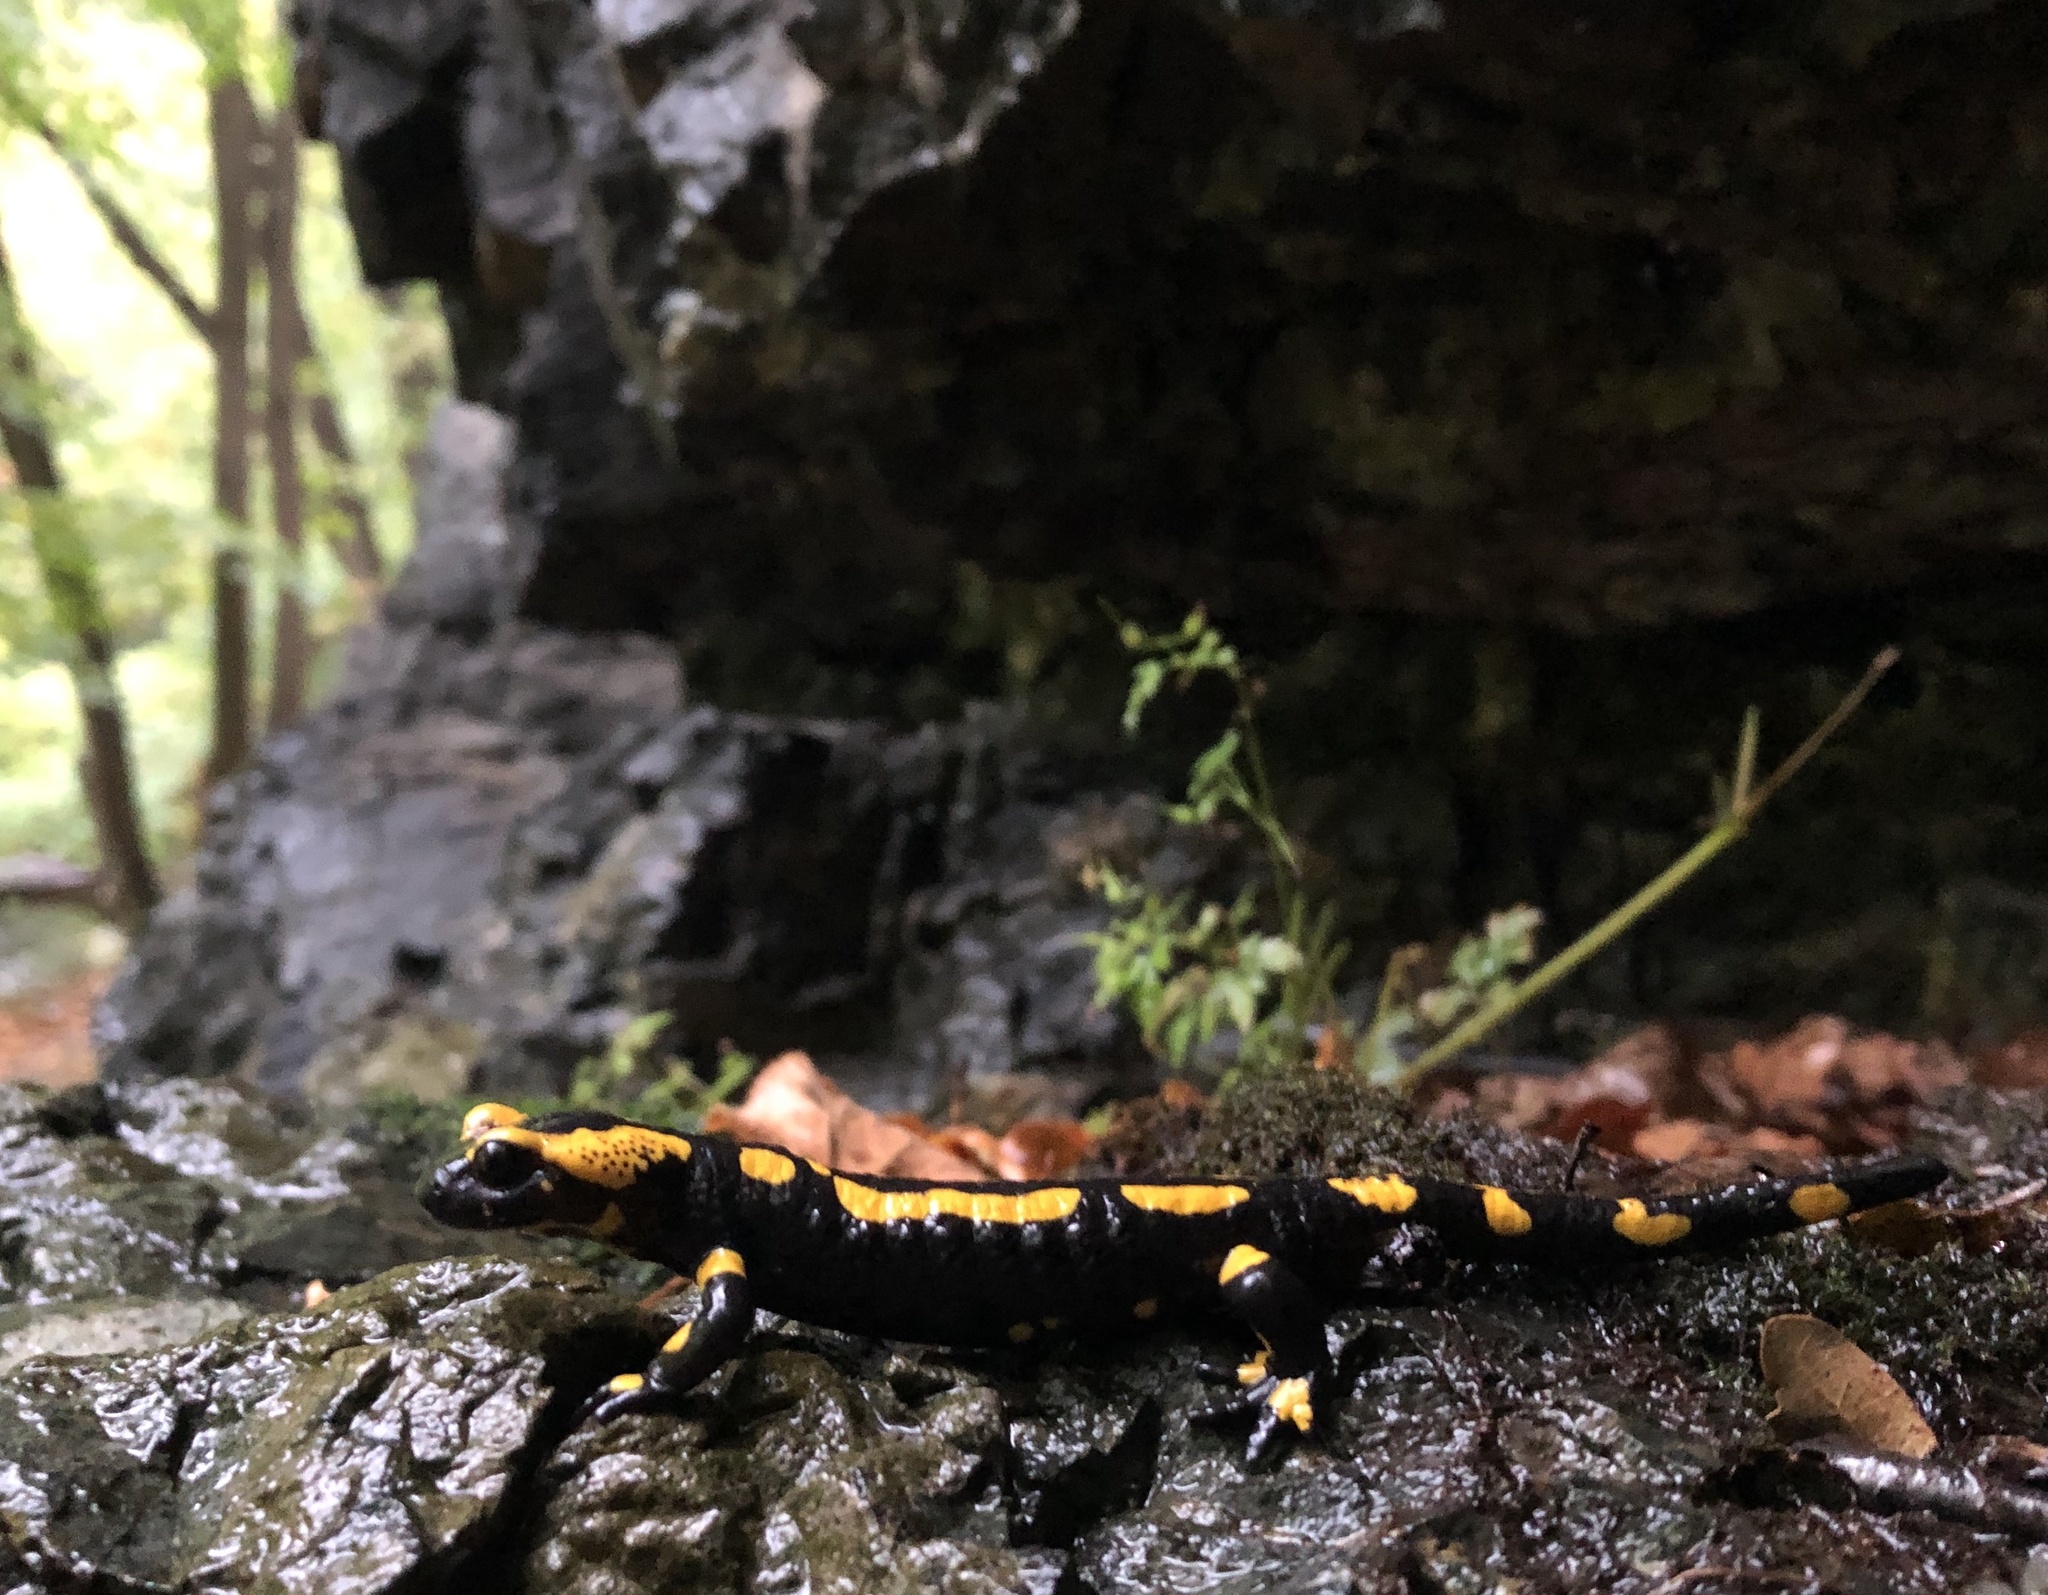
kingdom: Animalia
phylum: Chordata
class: Amphibia
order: Caudata
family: Salamandridae
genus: Salamandra
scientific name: Salamandra salamandra
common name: Fire salamander
